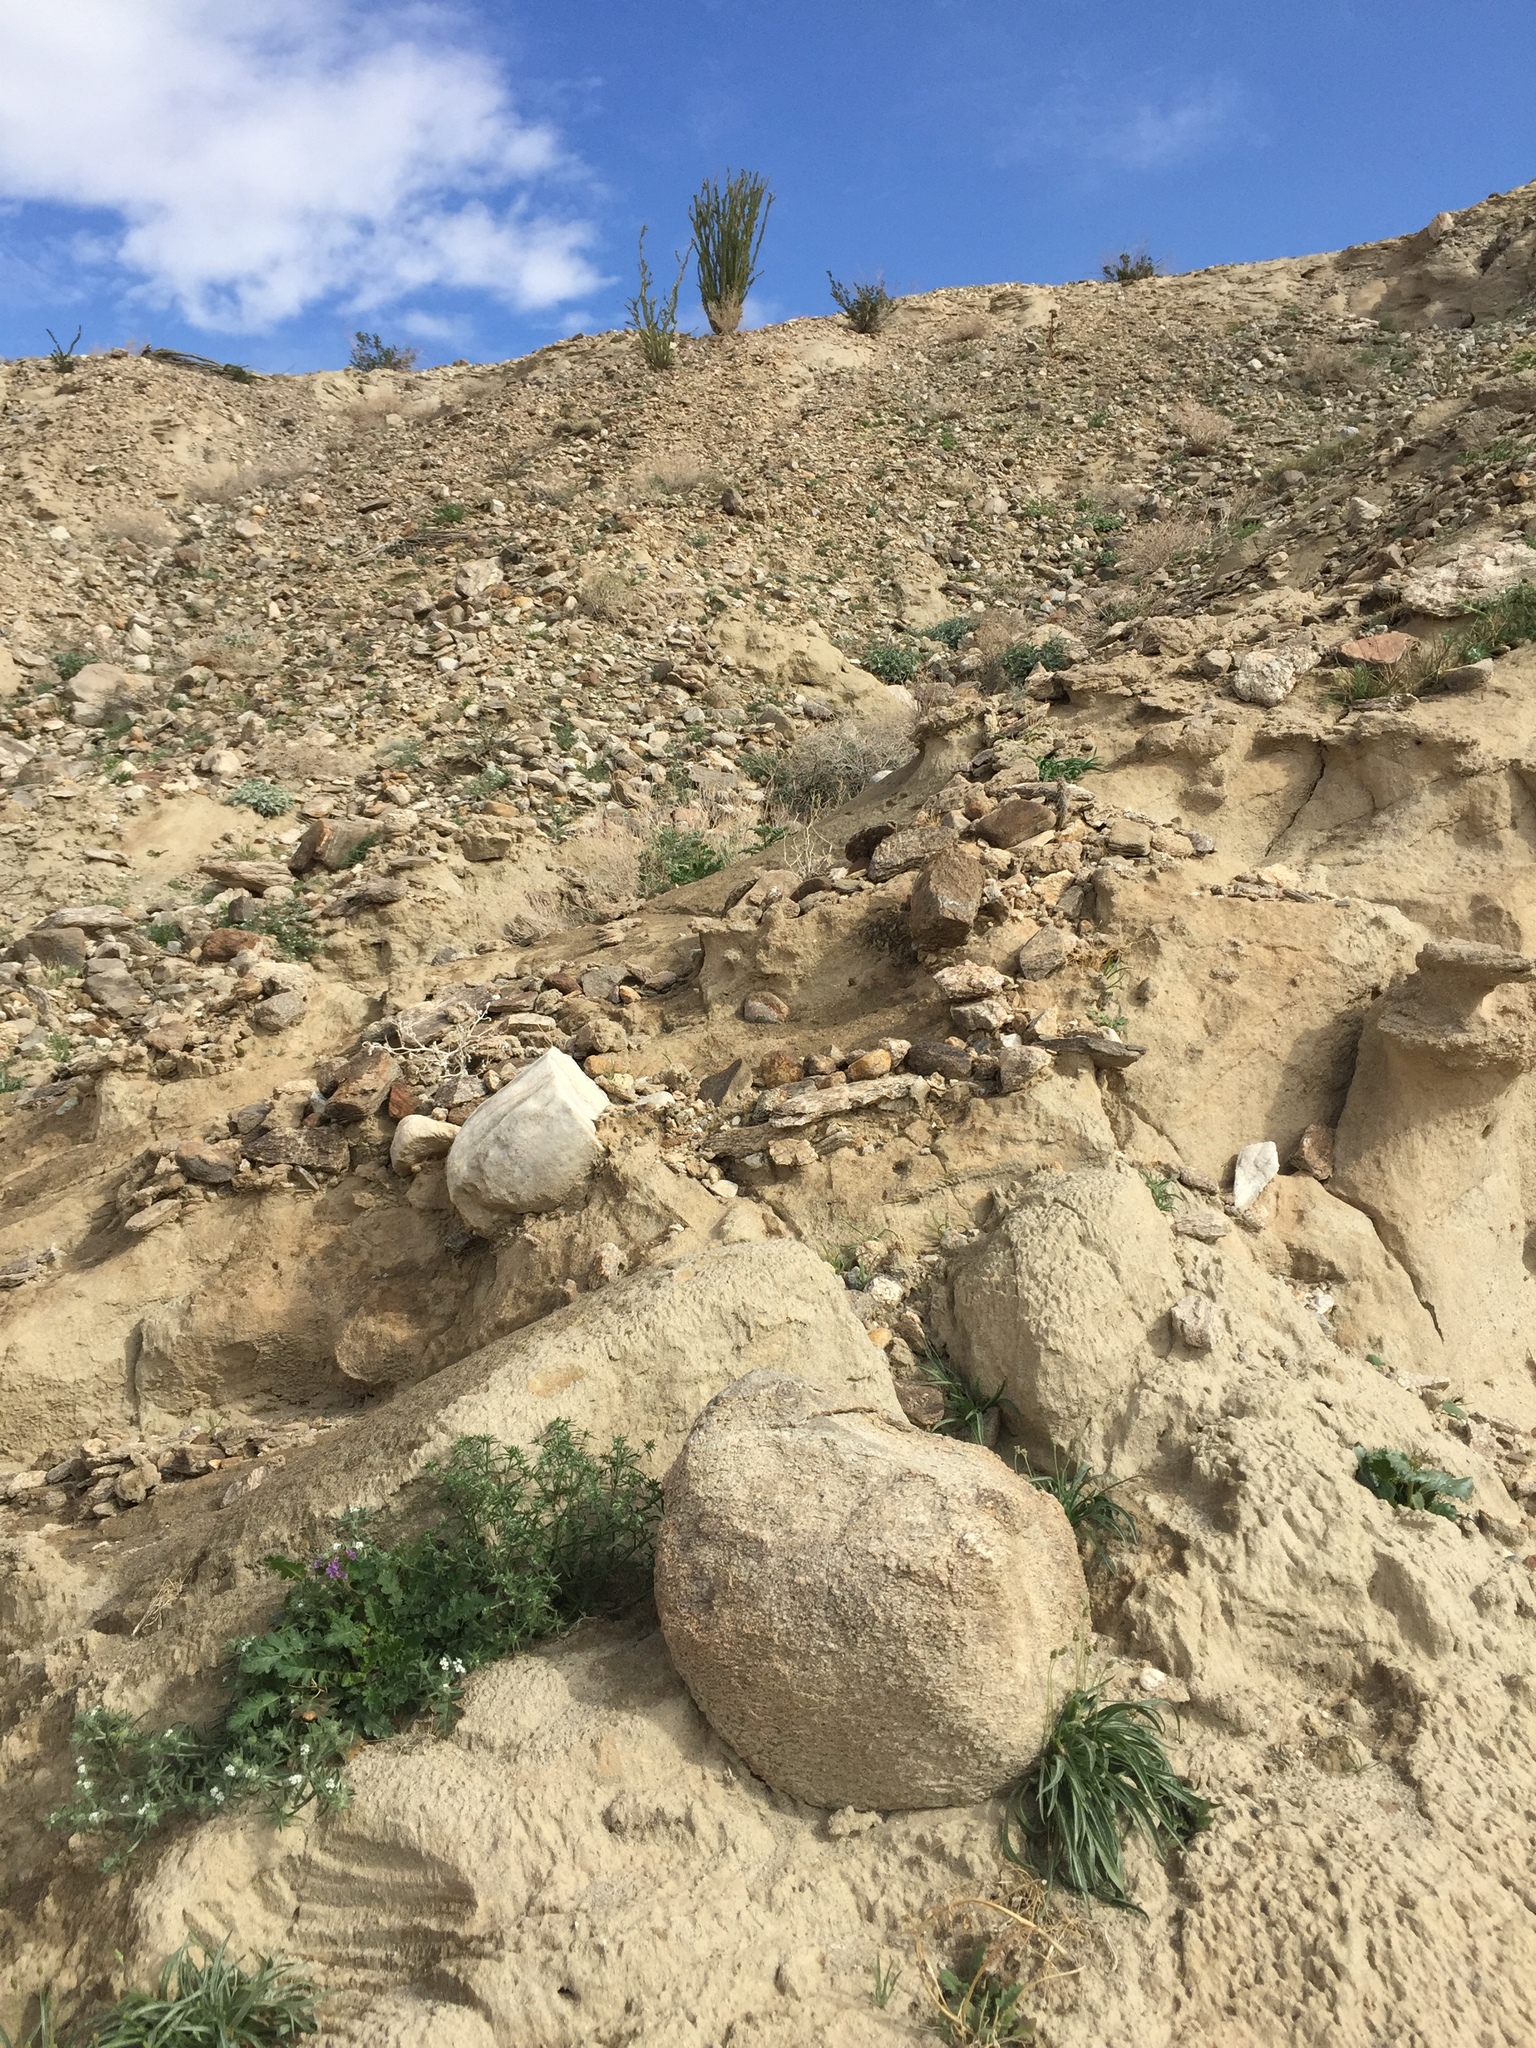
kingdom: Plantae
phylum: Tracheophyta
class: Magnoliopsida
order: Ericales
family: Fouquieriaceae
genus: Fouquieria
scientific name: Fouquieria splendens
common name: Vine-cactus
